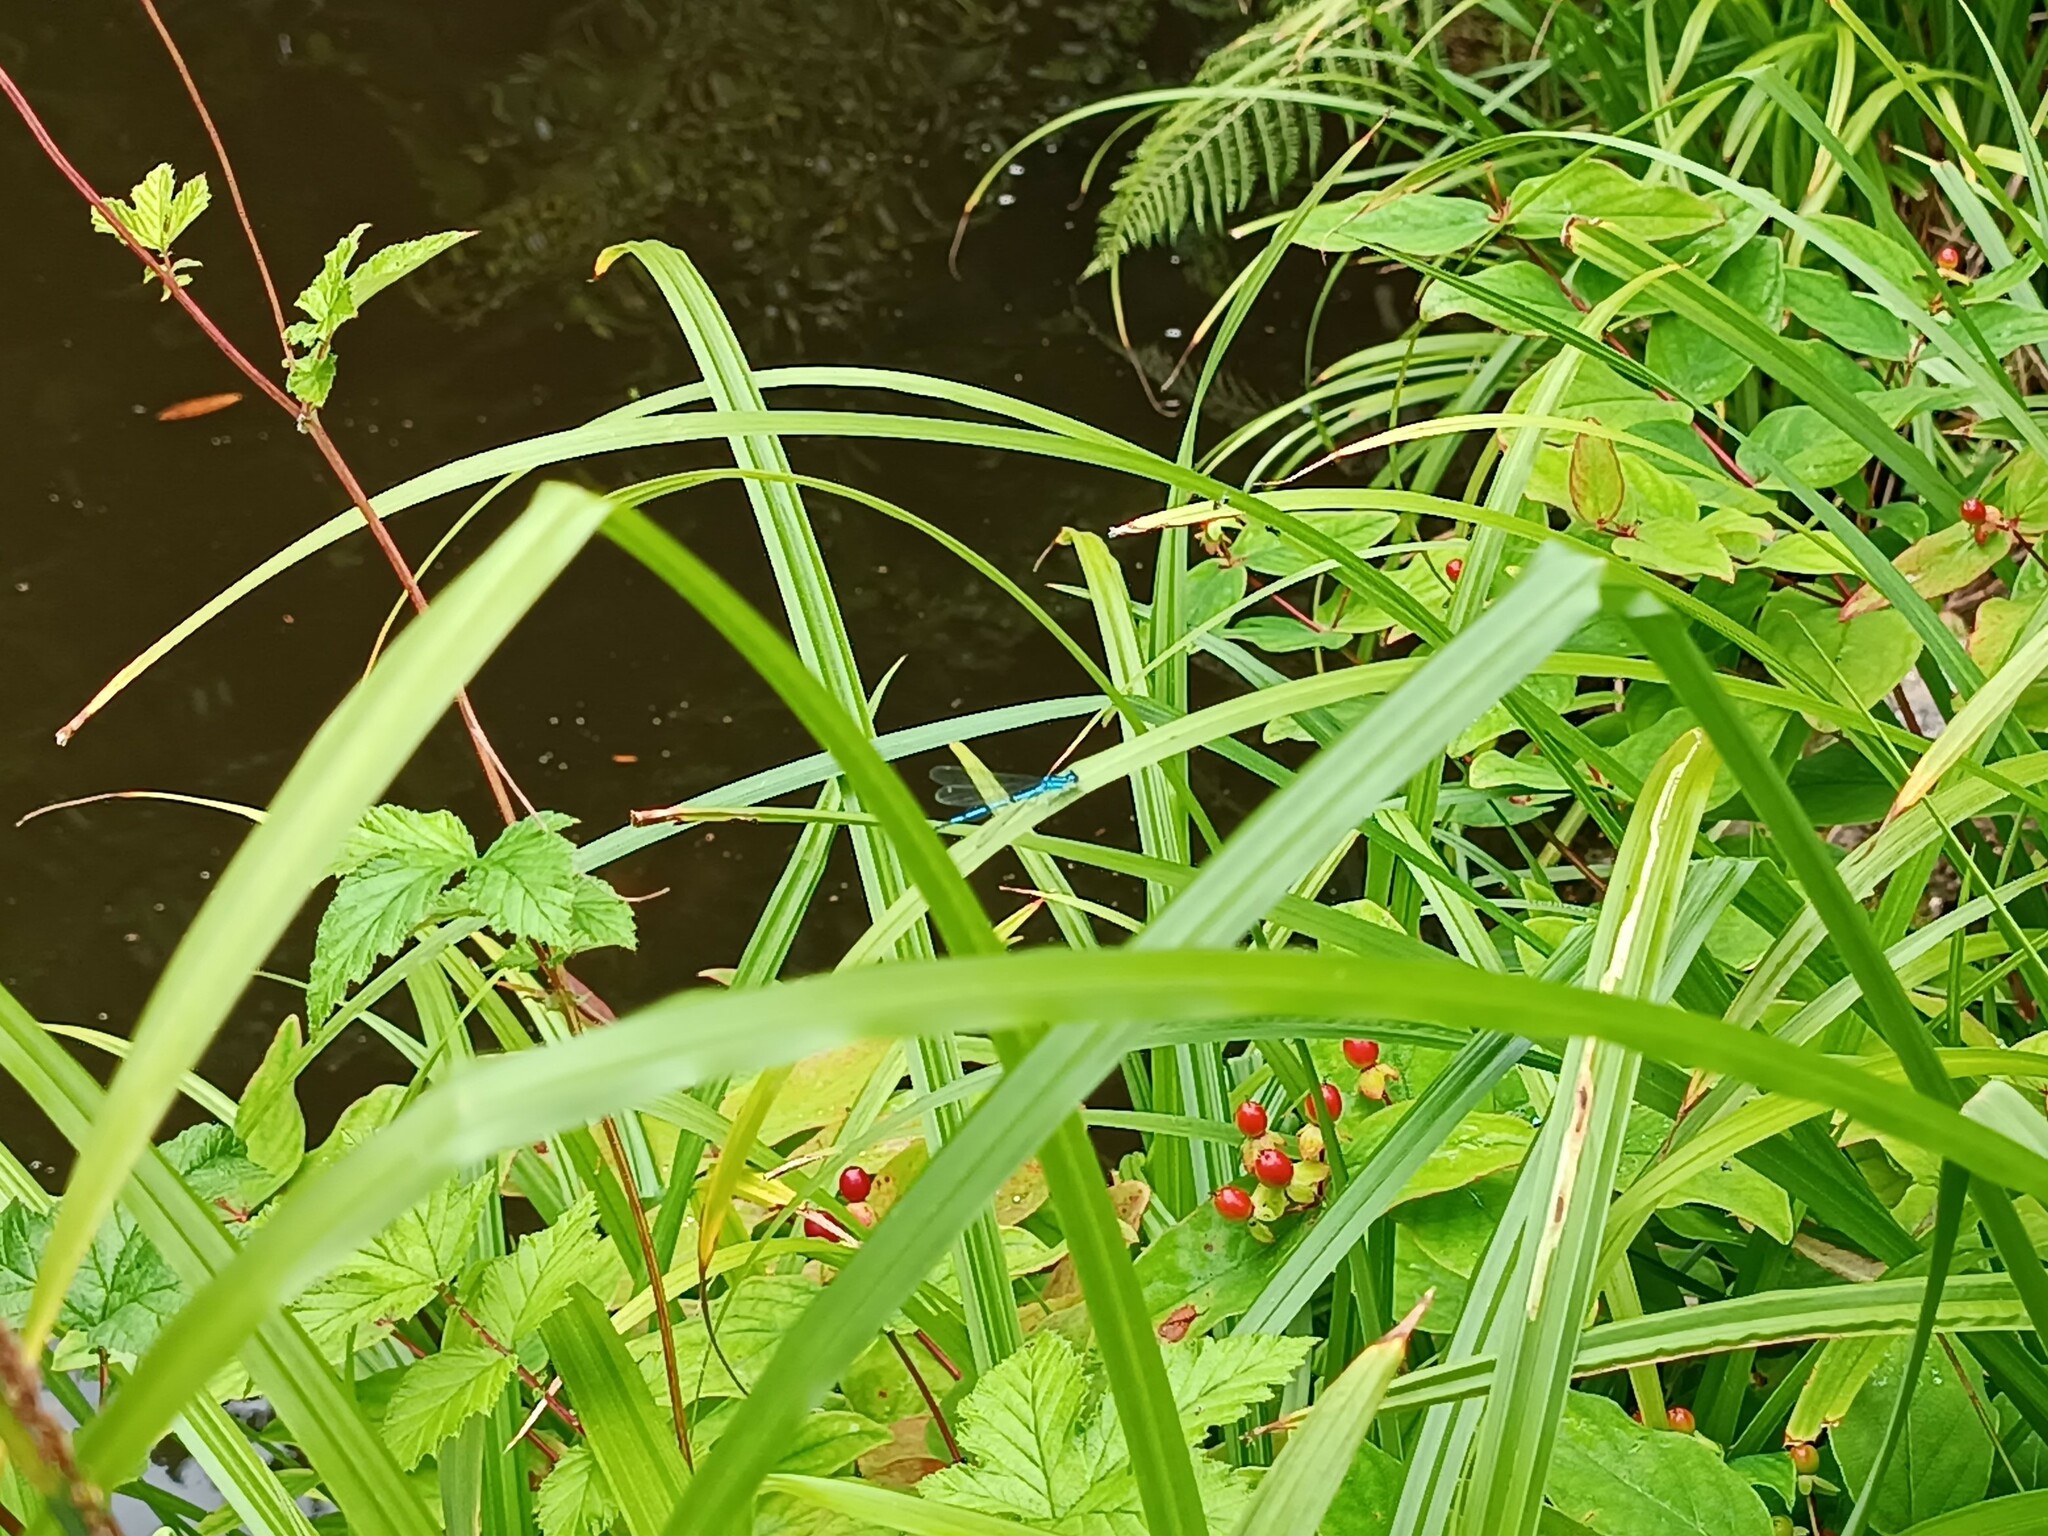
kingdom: Animalia
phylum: Arthropoda
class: Insecta
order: Odonata
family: Coenagrionidae
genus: Coenagrion
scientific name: Coenagrion puella
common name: Azure damselfly
